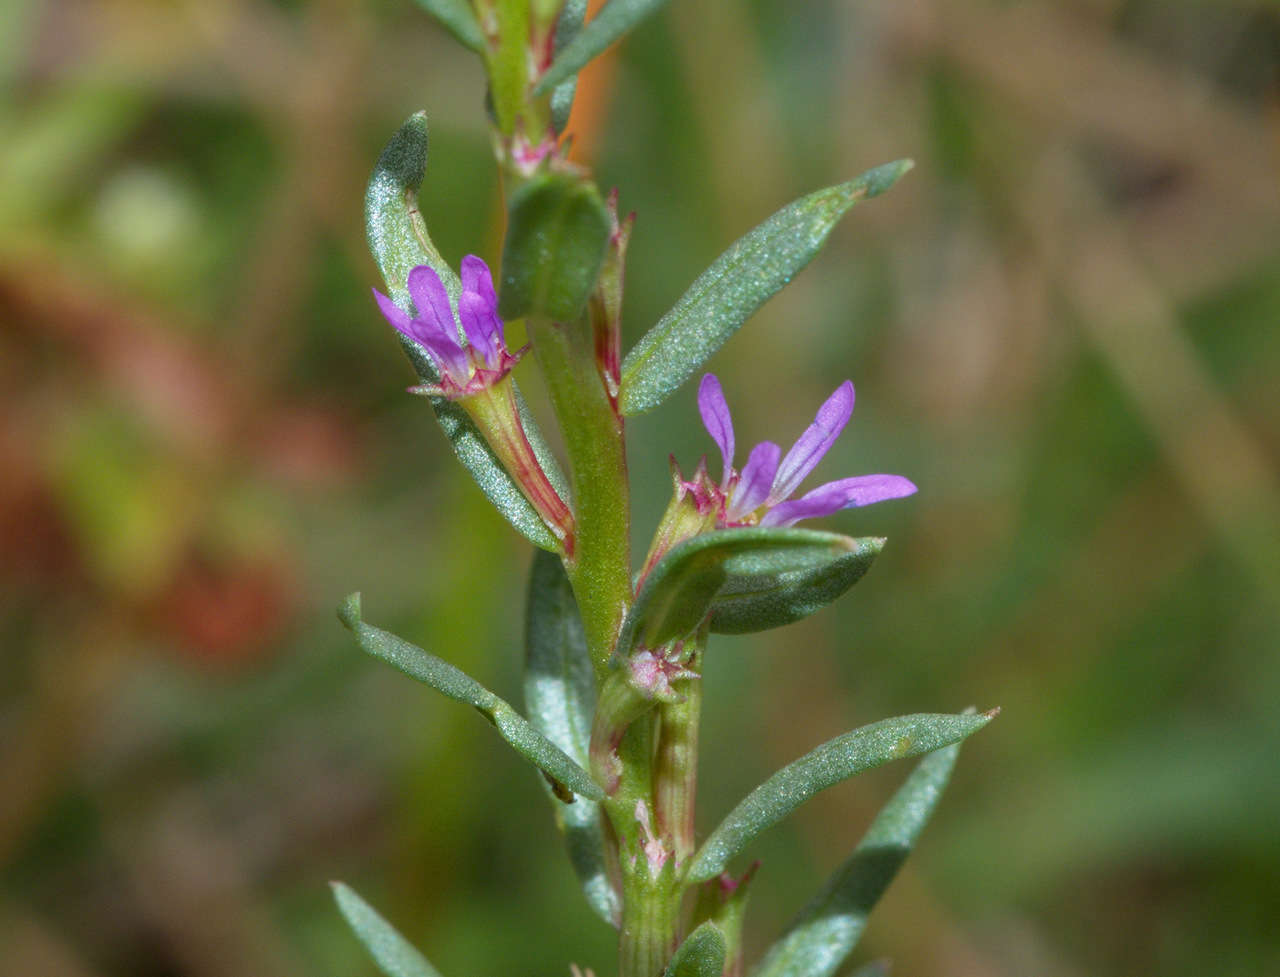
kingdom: Plantae
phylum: Tracheophyta
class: Magnoliopsida
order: Myrtales
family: Lythraceae
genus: Lythrum
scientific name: Lythrum hyssopifolia
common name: Grass-poly
